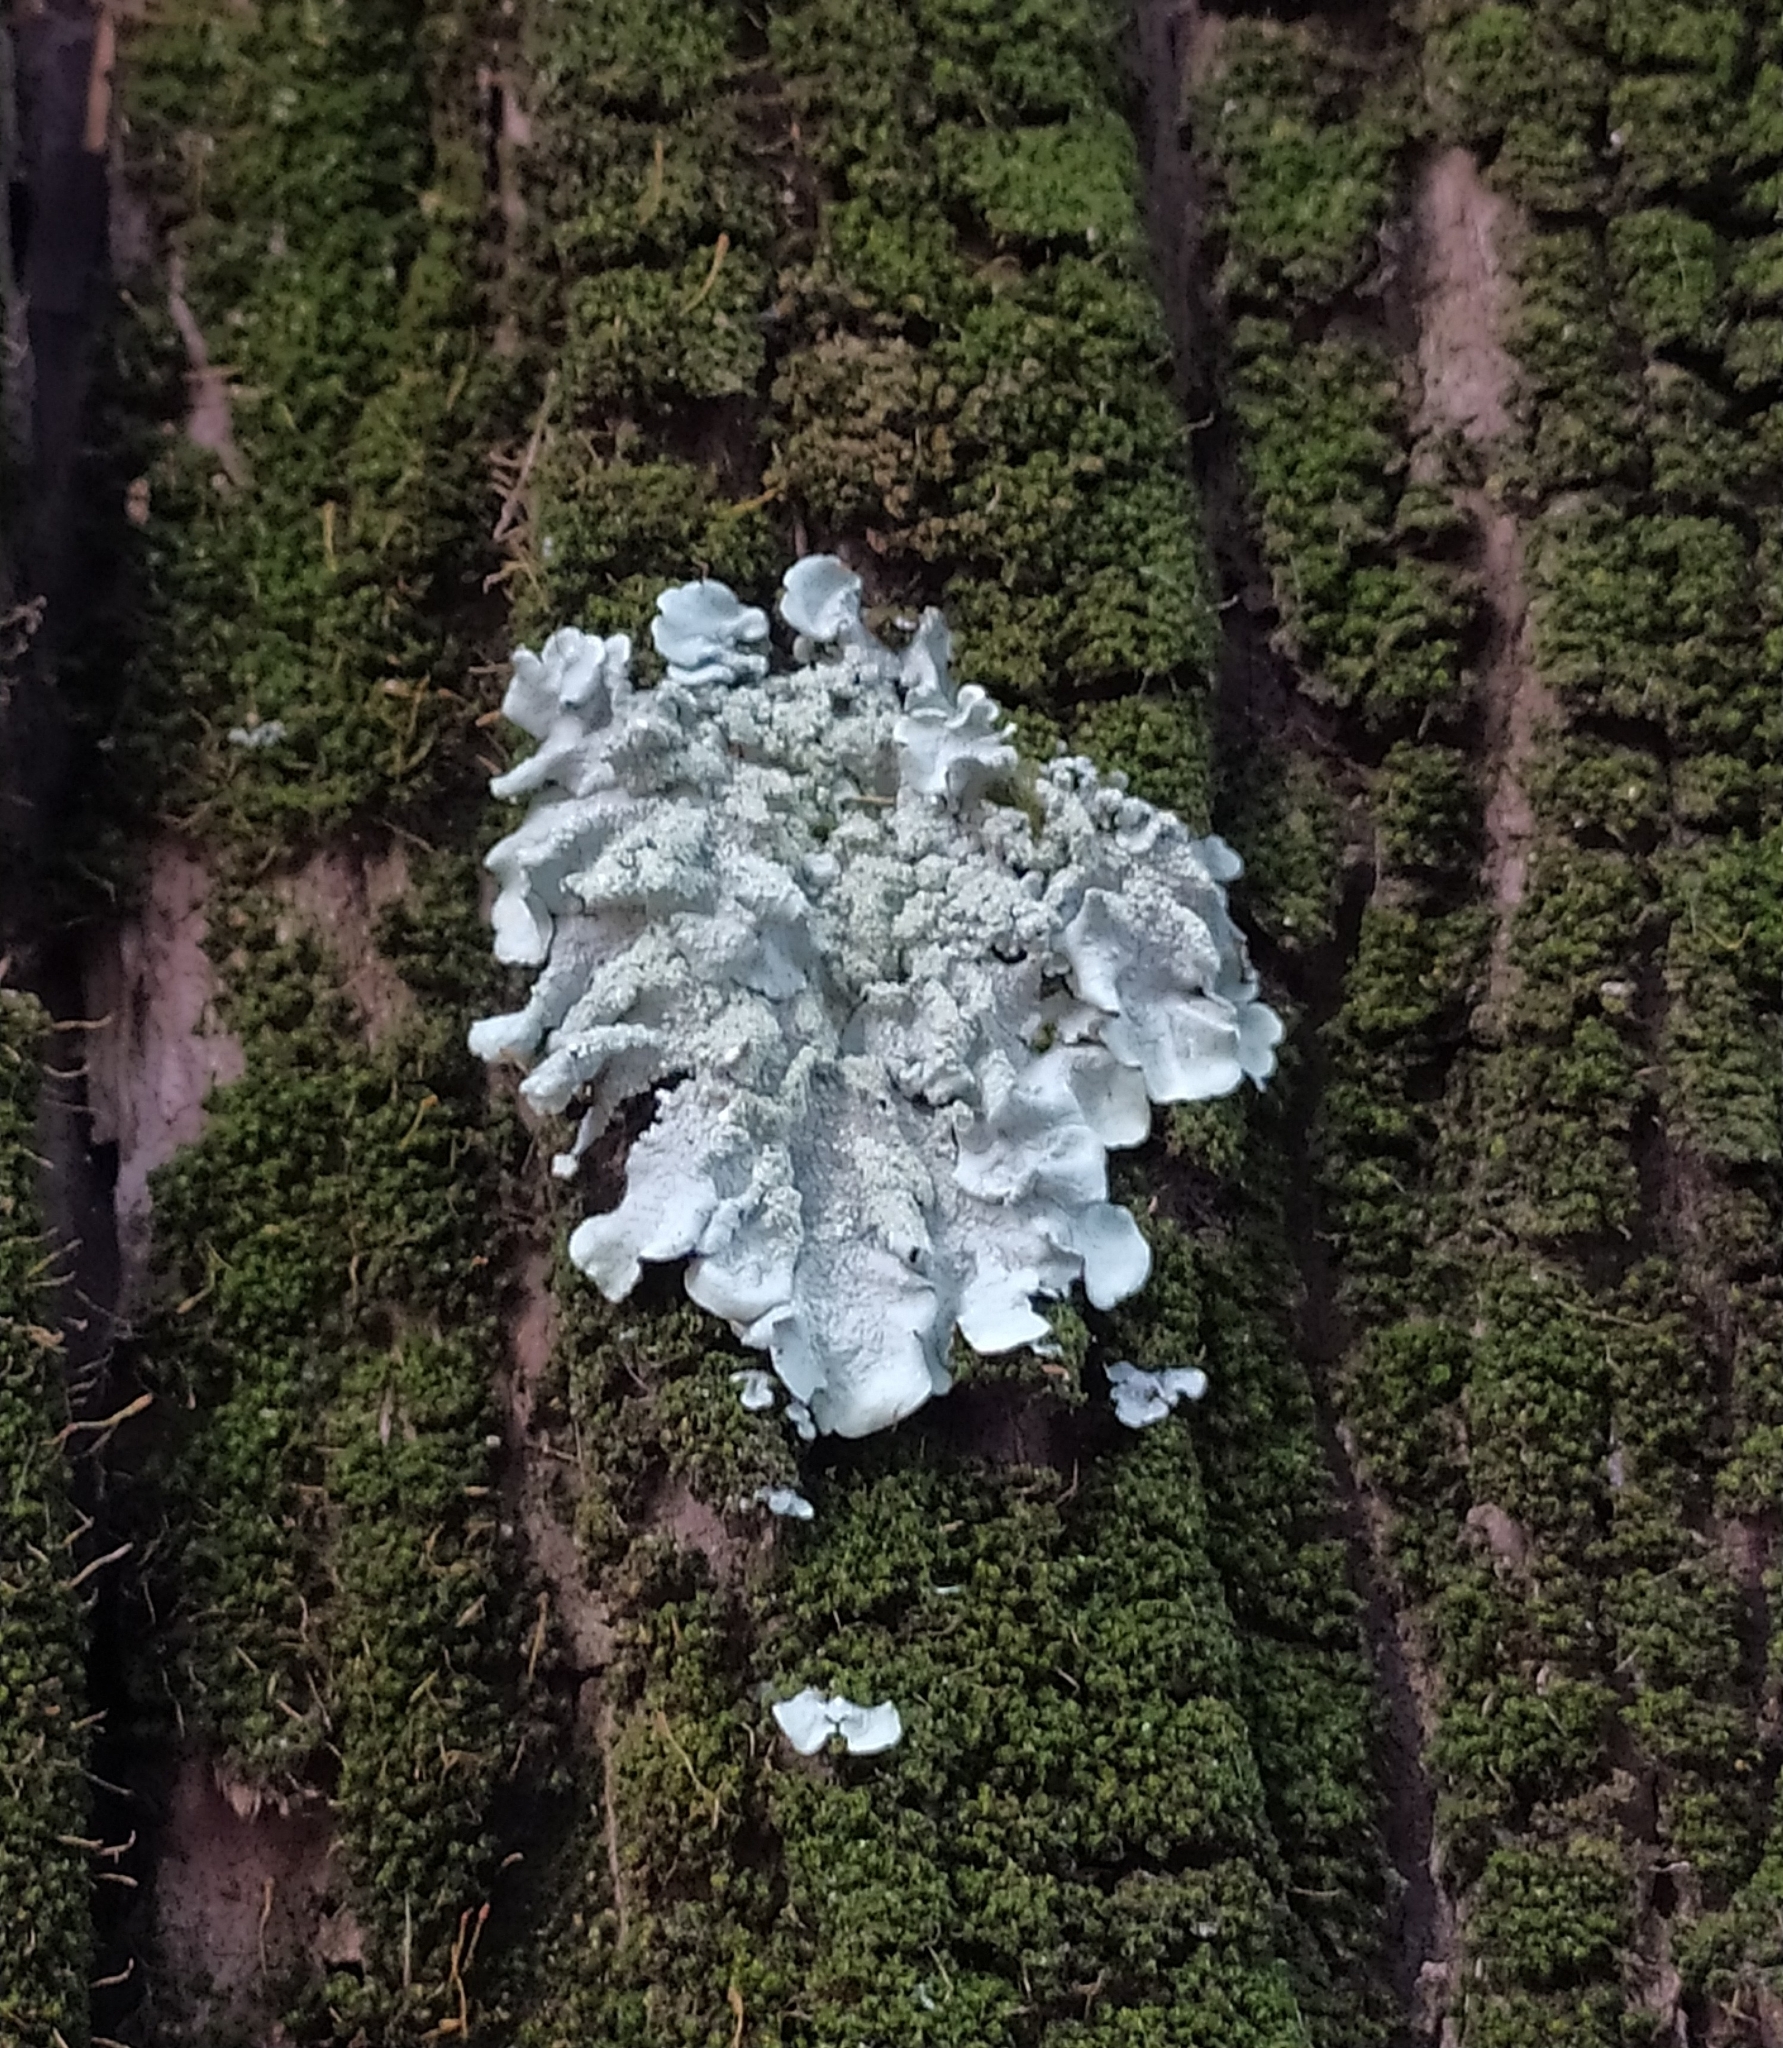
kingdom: Fungi
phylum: Ascomycota
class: Lecanoromycetes
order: Lecanorales
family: Parmeliaceae
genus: Flavoparmelia
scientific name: Flavoparmelia caperata
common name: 40-mile per hour lichen
